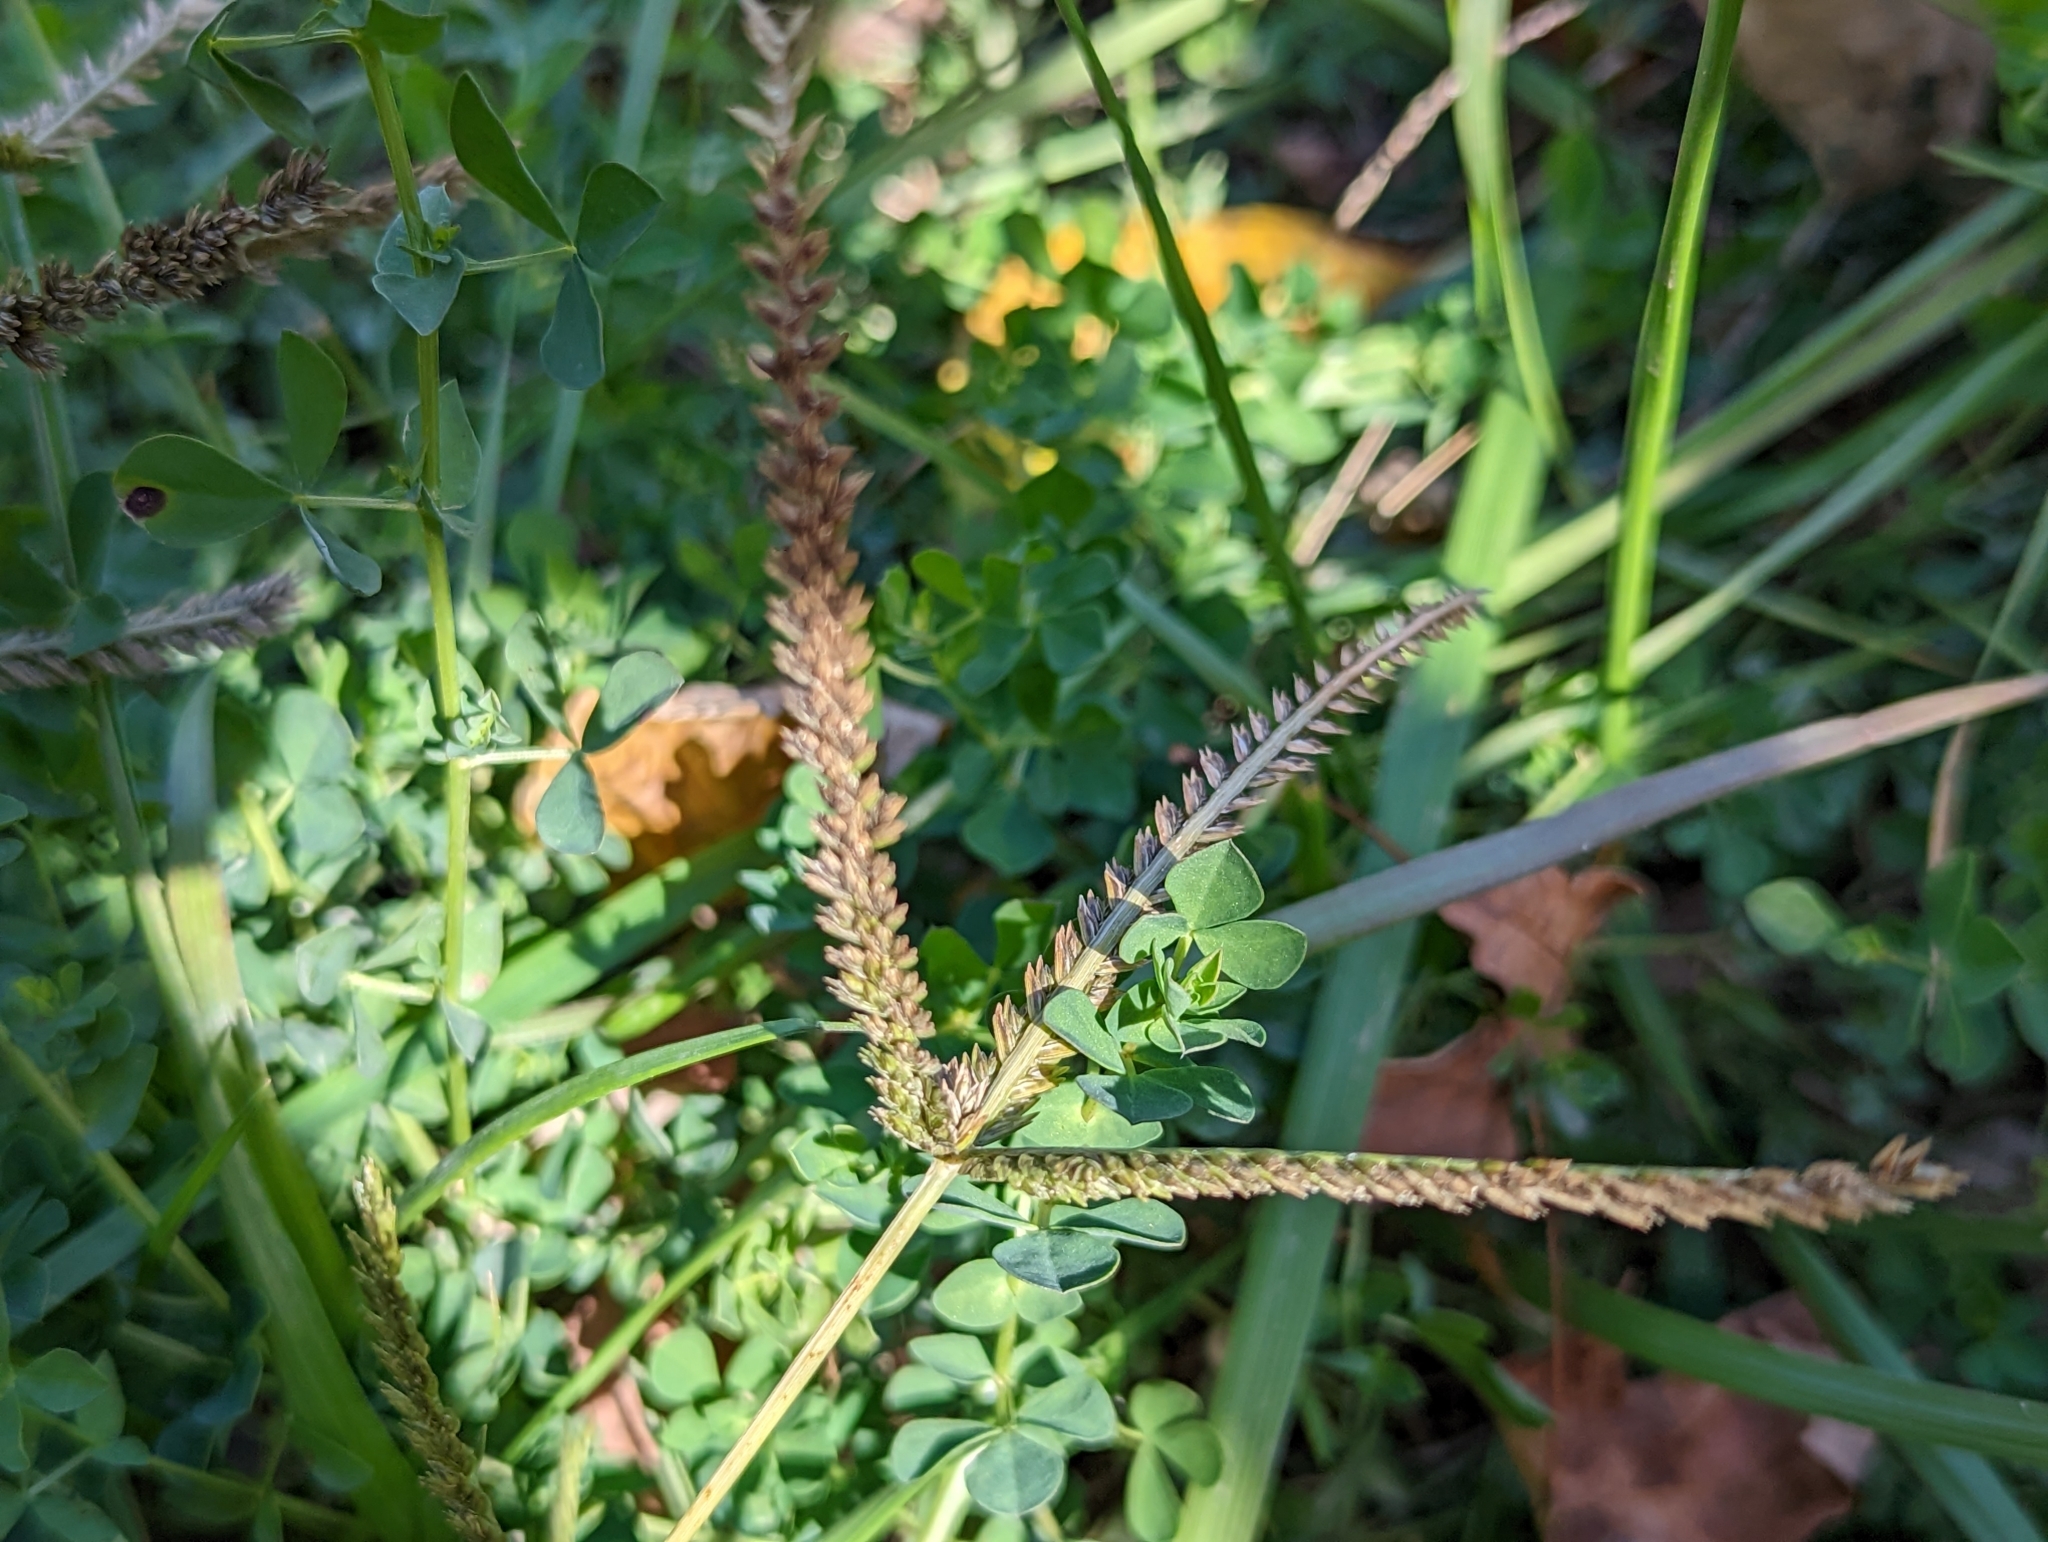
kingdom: Plantae
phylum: Tracheophyta
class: Liliopsida
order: Poales
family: Poaceae
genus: Eleusine
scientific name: Eleusine indica
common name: Yard-grass
